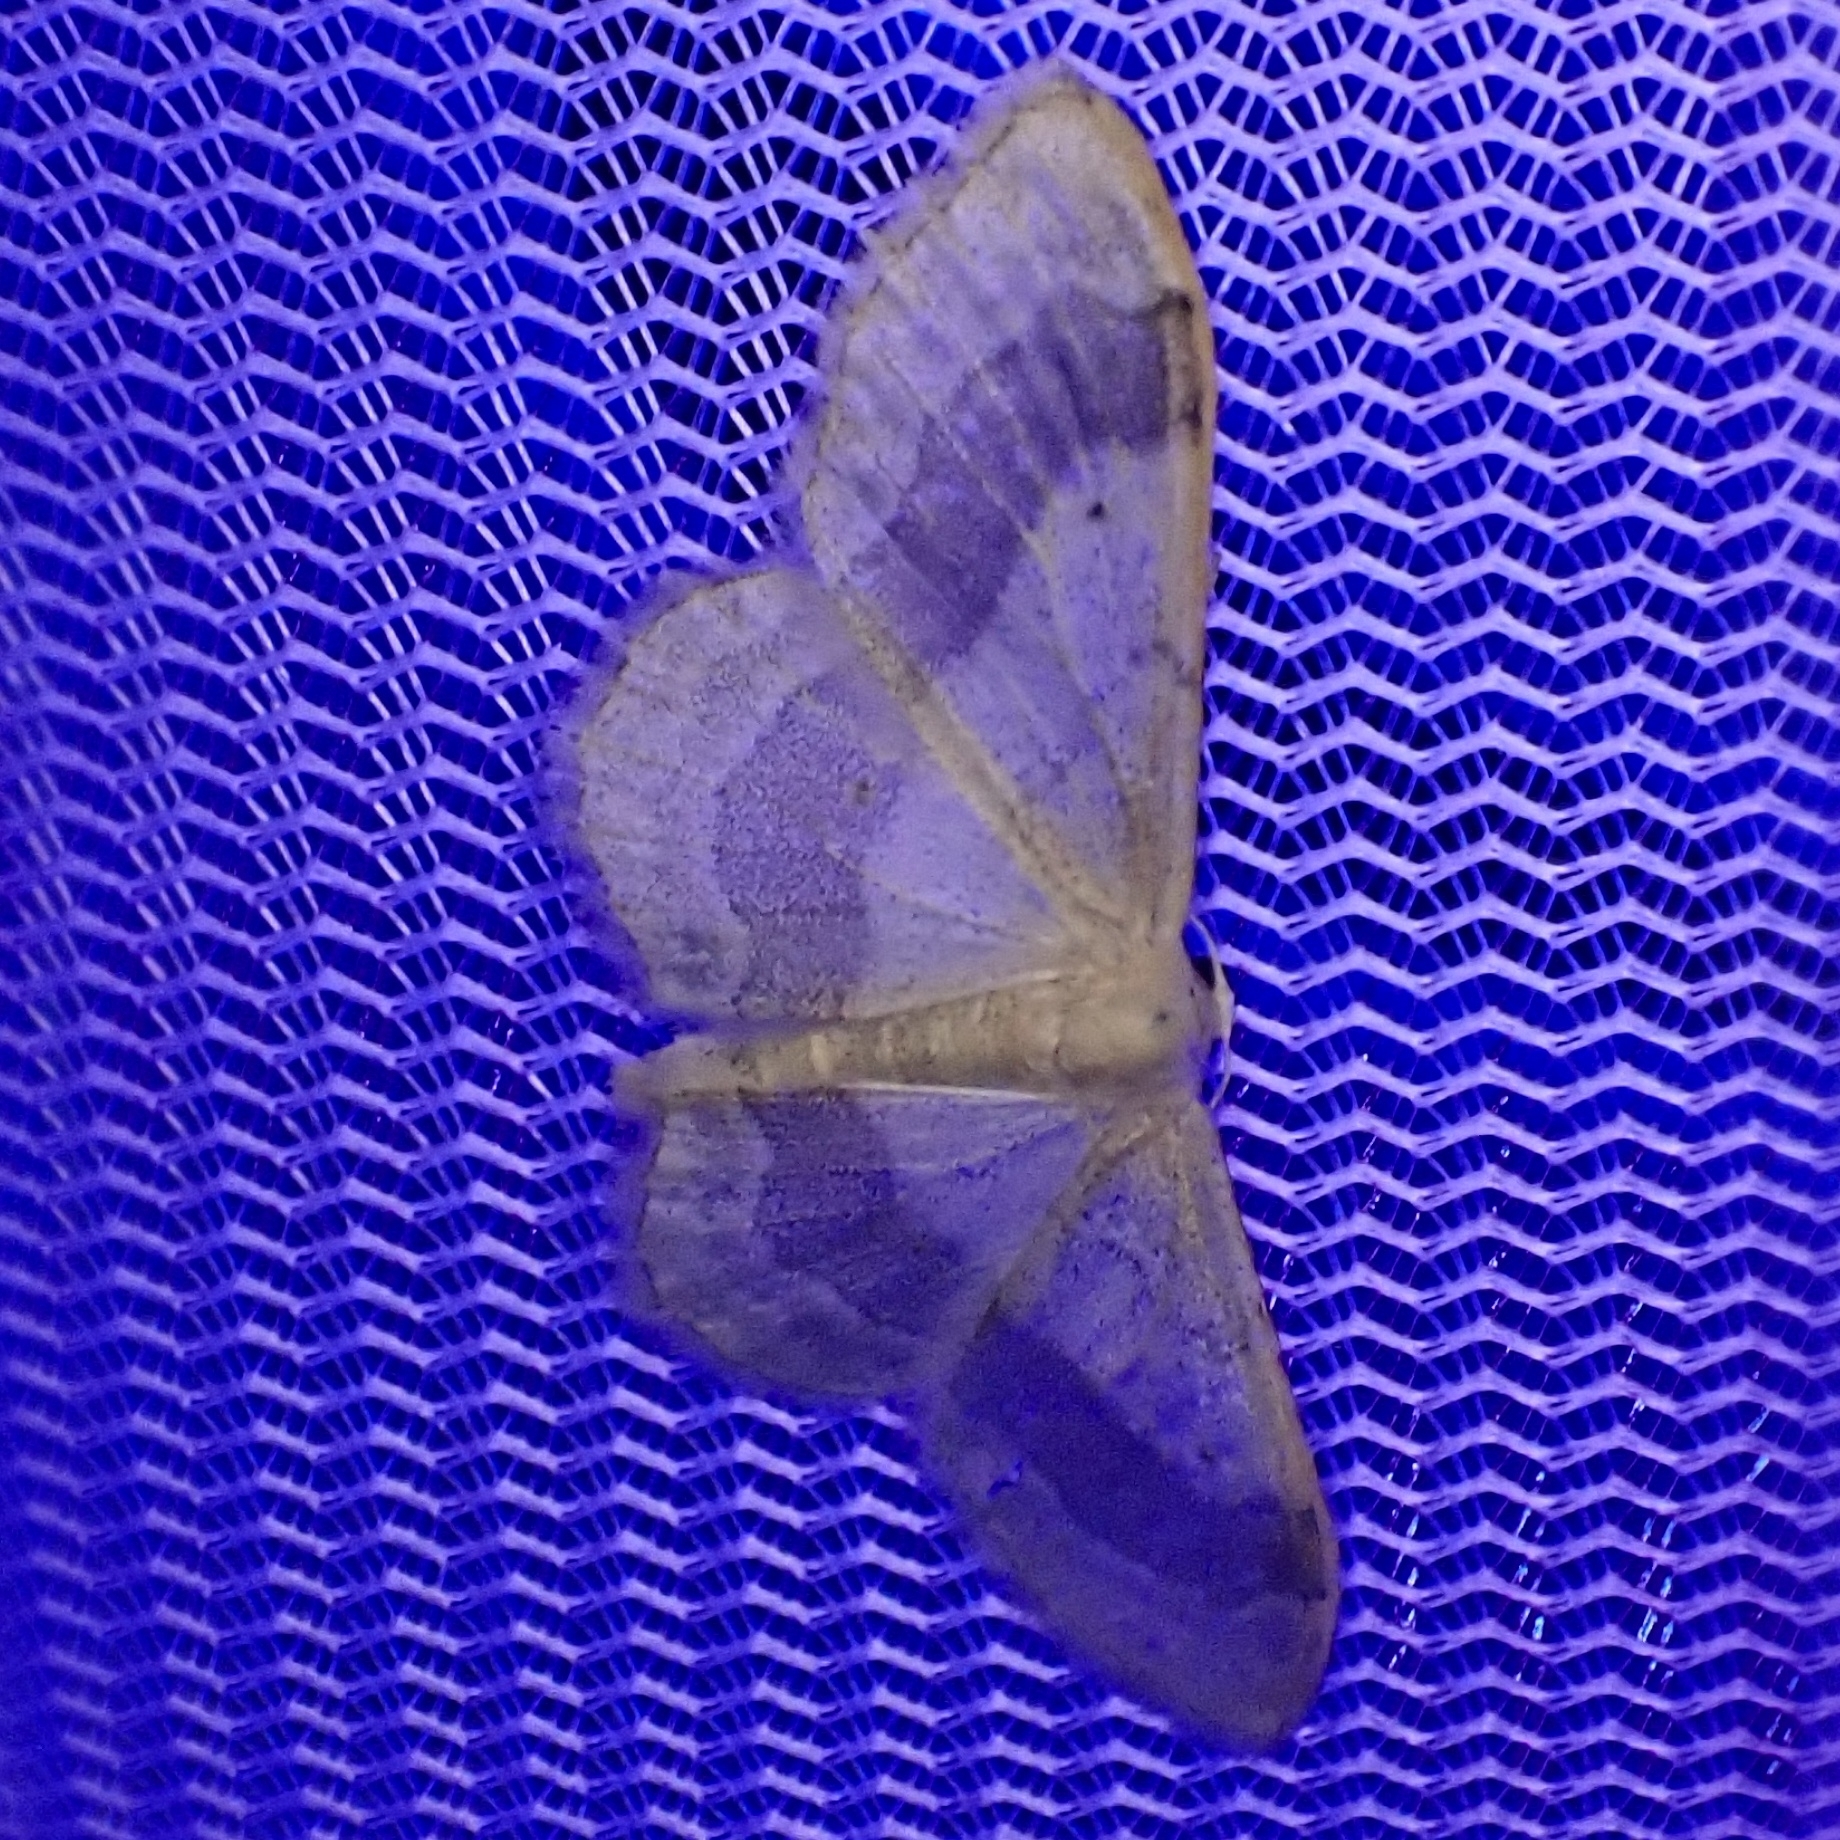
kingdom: Animalia
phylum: Arthropoda
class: Insecta
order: Lepidoptera
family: Geometridae
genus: Idaea
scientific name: Idaea aversata
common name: Riband wave
